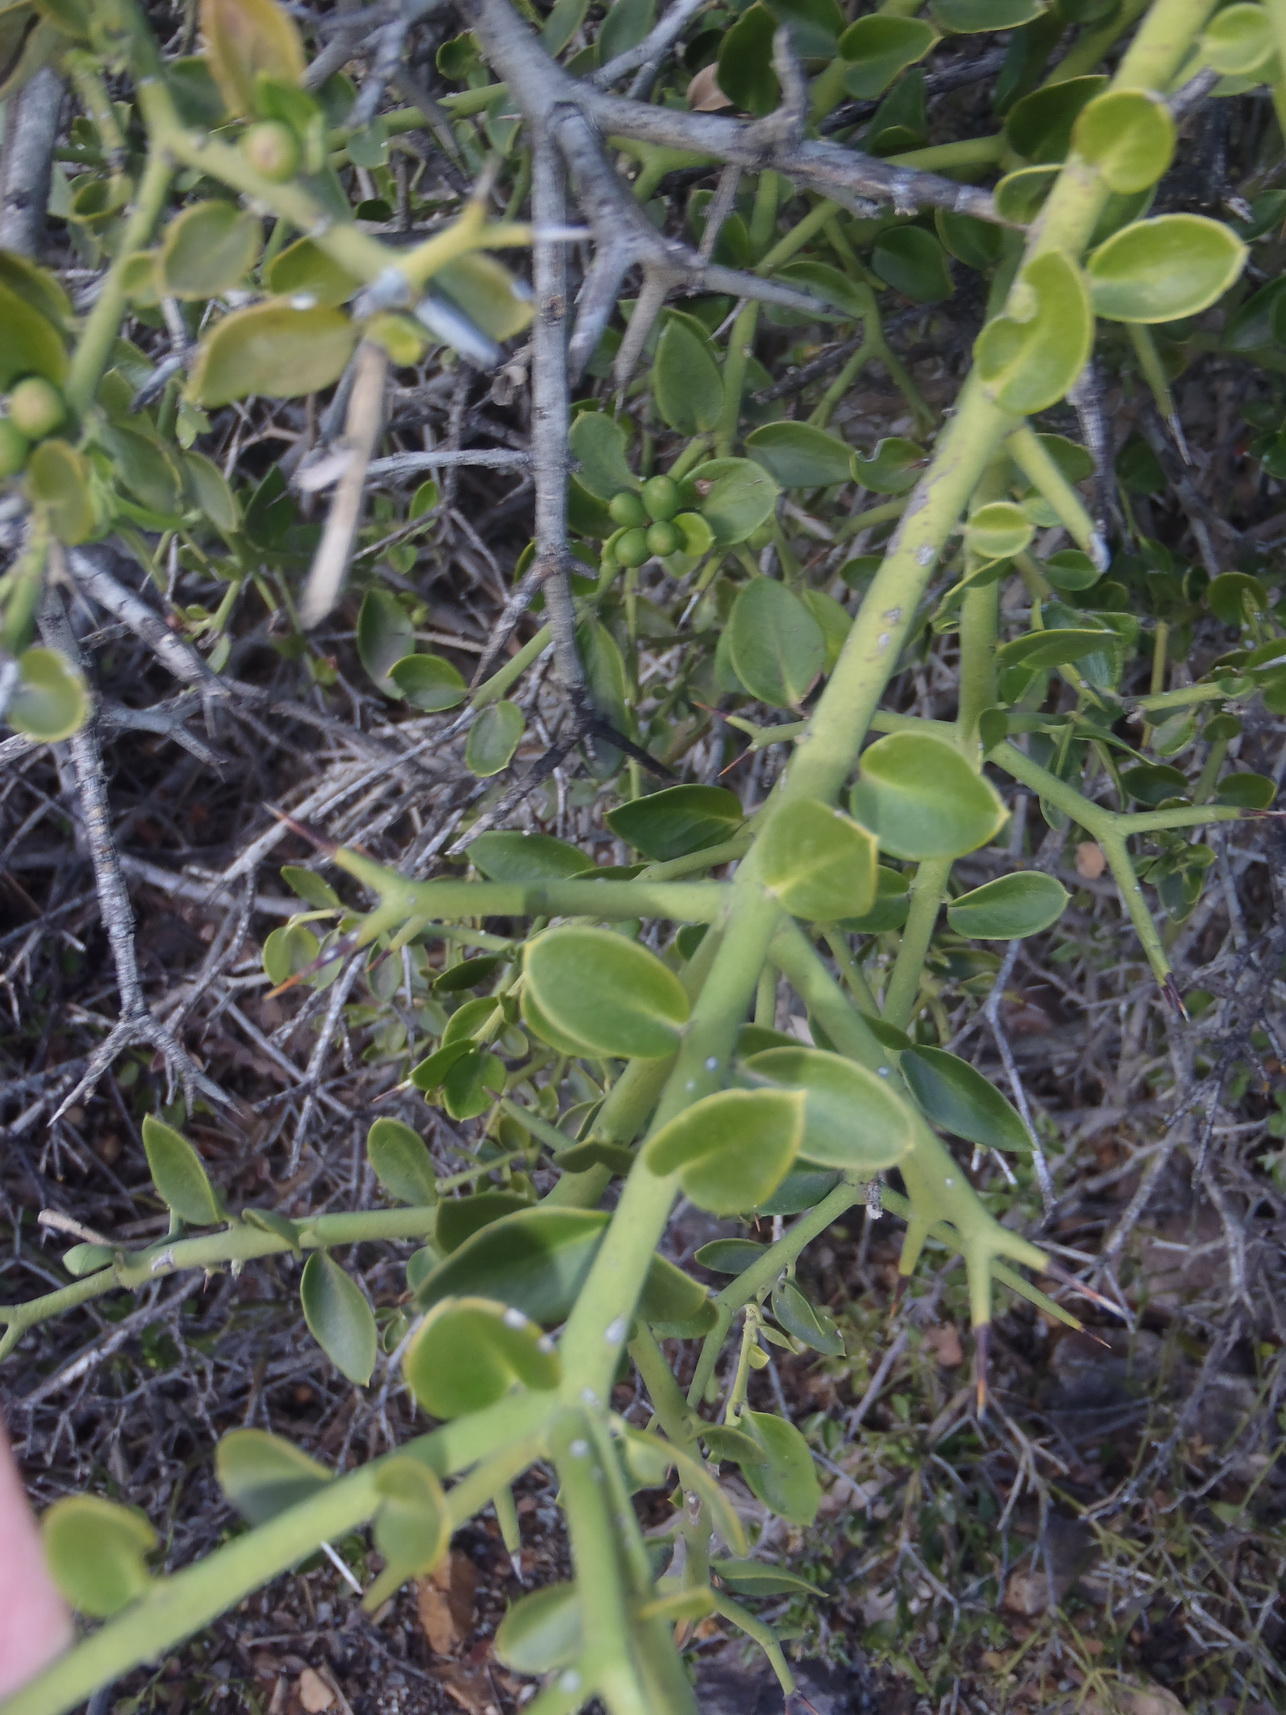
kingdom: Plantae
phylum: Tracheophyta
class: Magnoliopsida
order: Gentianales
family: Apocynaceae
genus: Carissa
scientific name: Carissa haematocarpa
